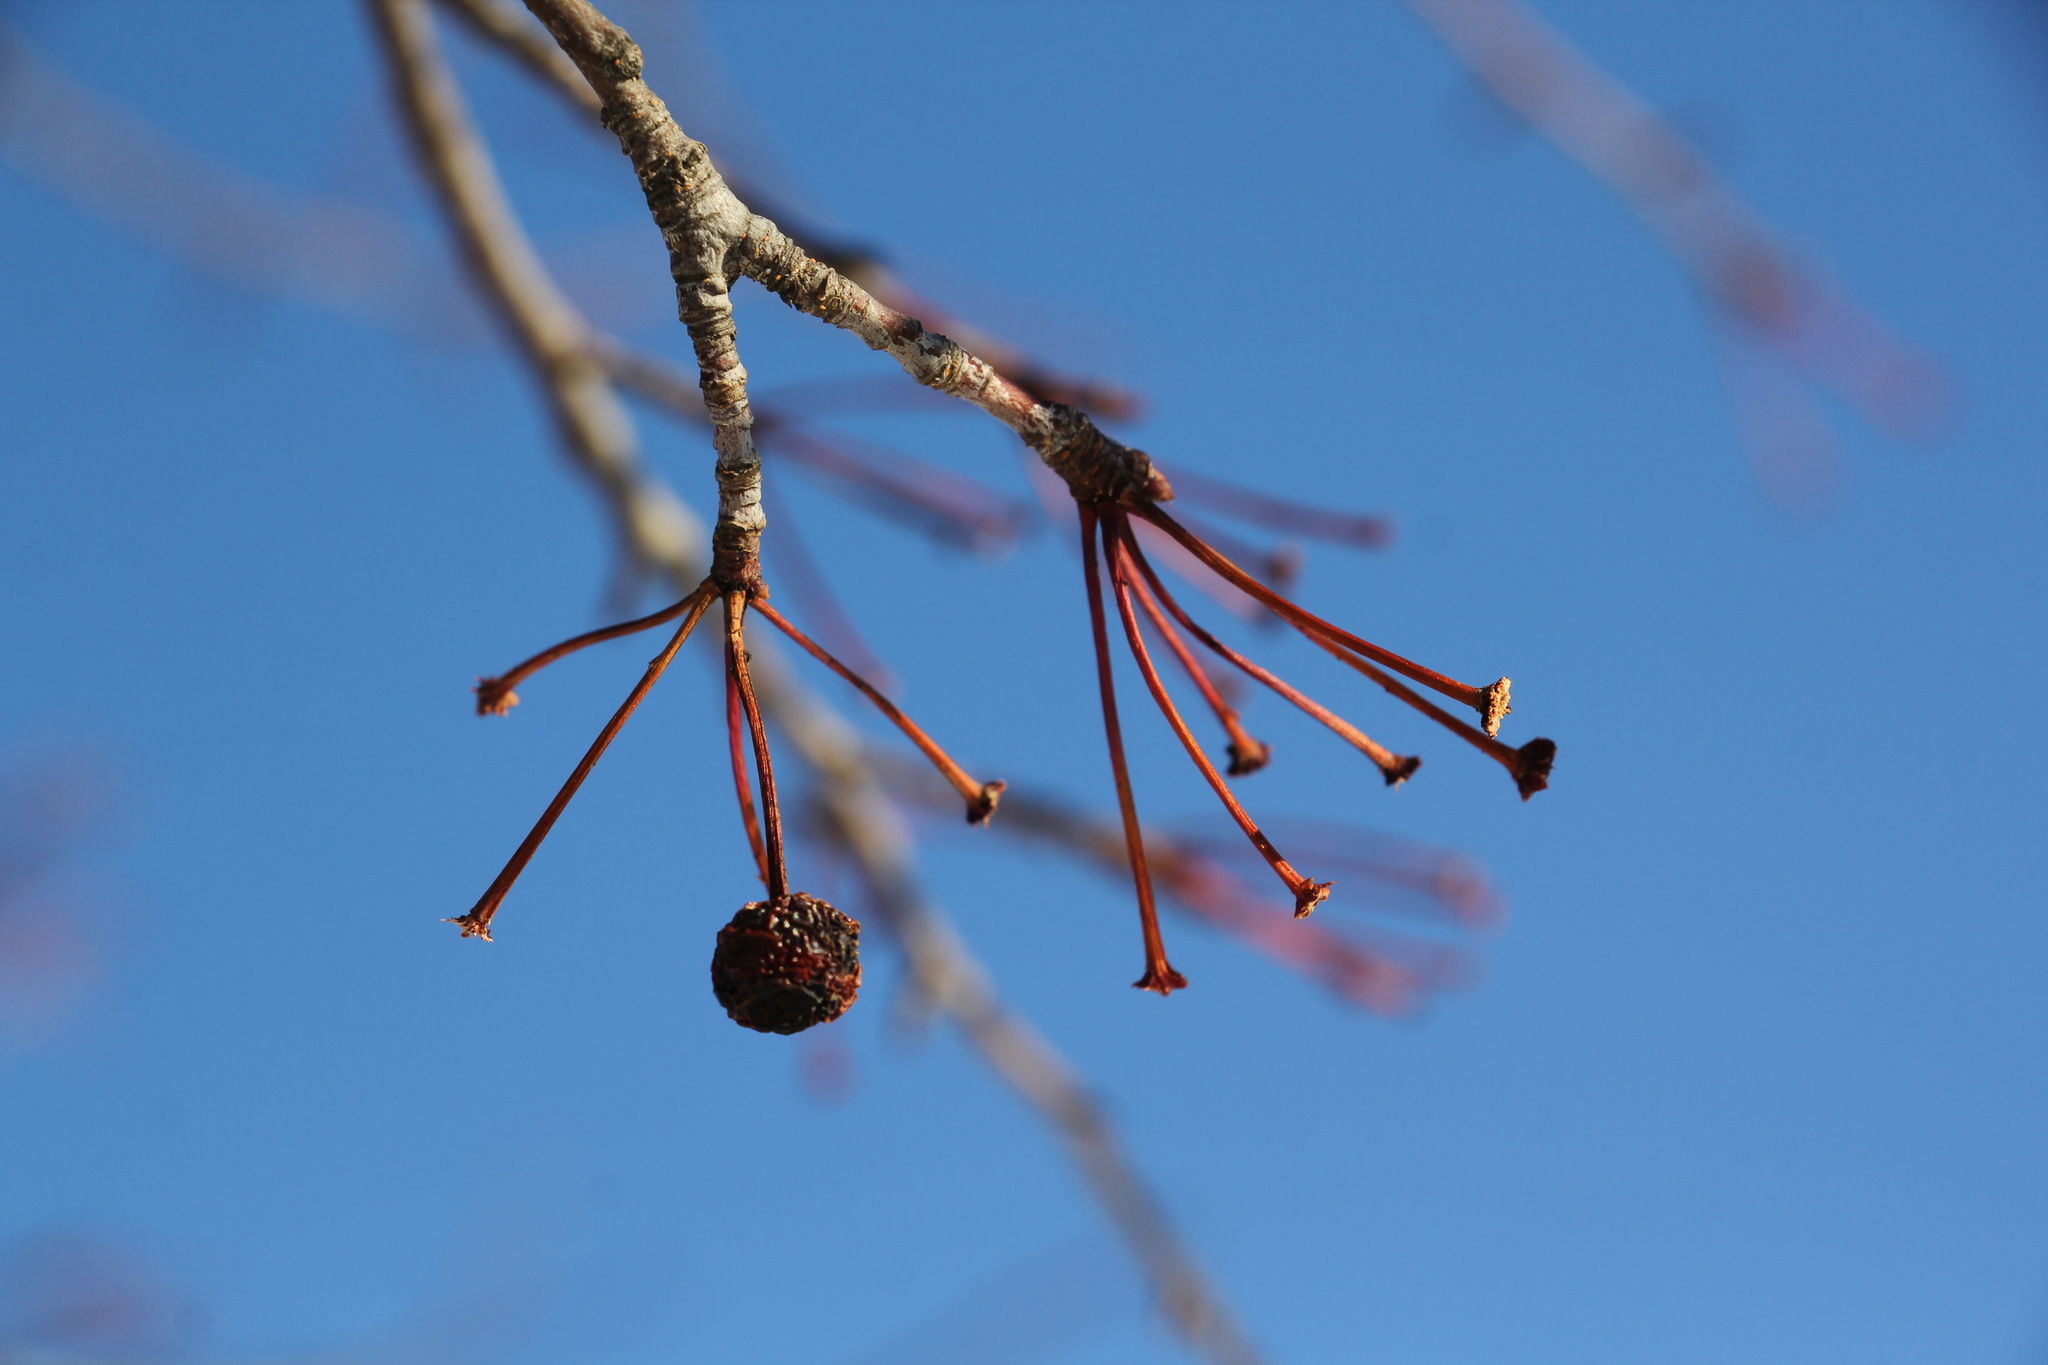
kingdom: Plantae
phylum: Tracheophyta
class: Magnoliopsida
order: Rosales
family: Rosaceae
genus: Malus
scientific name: Malus baccata
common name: Siberian crab
